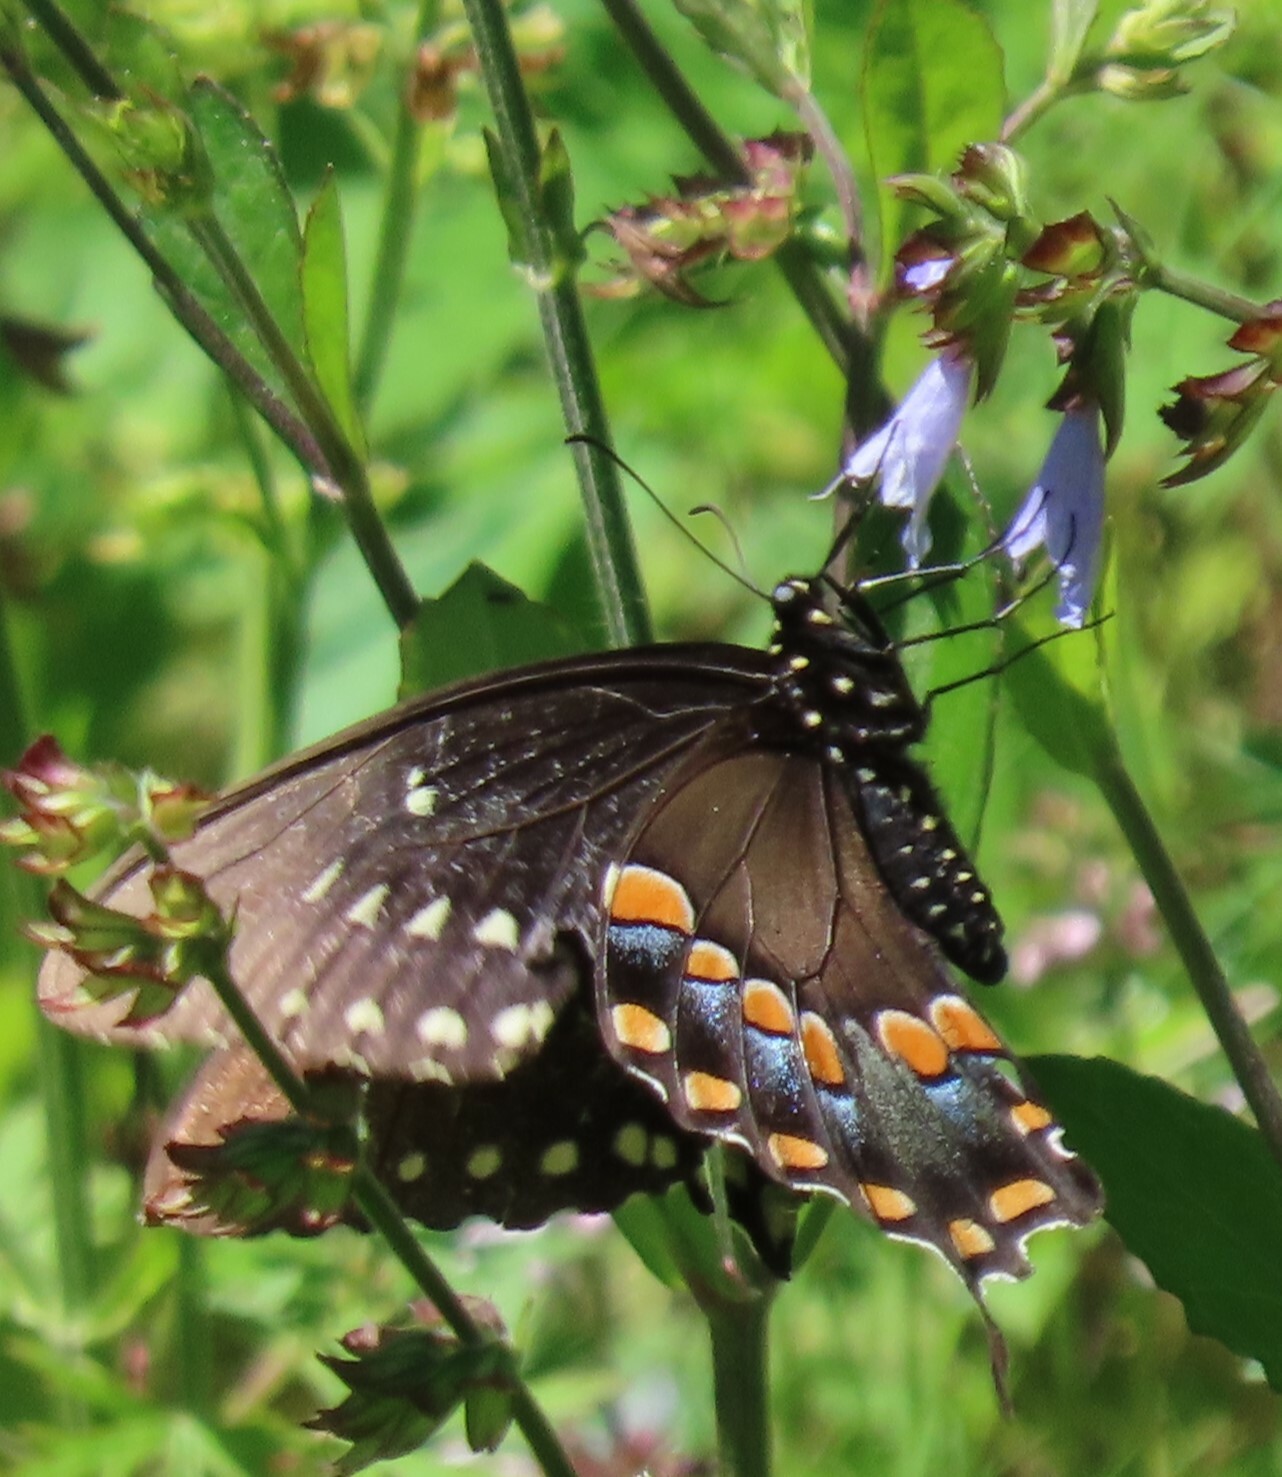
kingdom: Animalia
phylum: Arthropoda
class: Insecta
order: Lepidoptera
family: Papilionidae
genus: Papilio
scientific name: Papilio troilus
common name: Spicebush swallowtail
